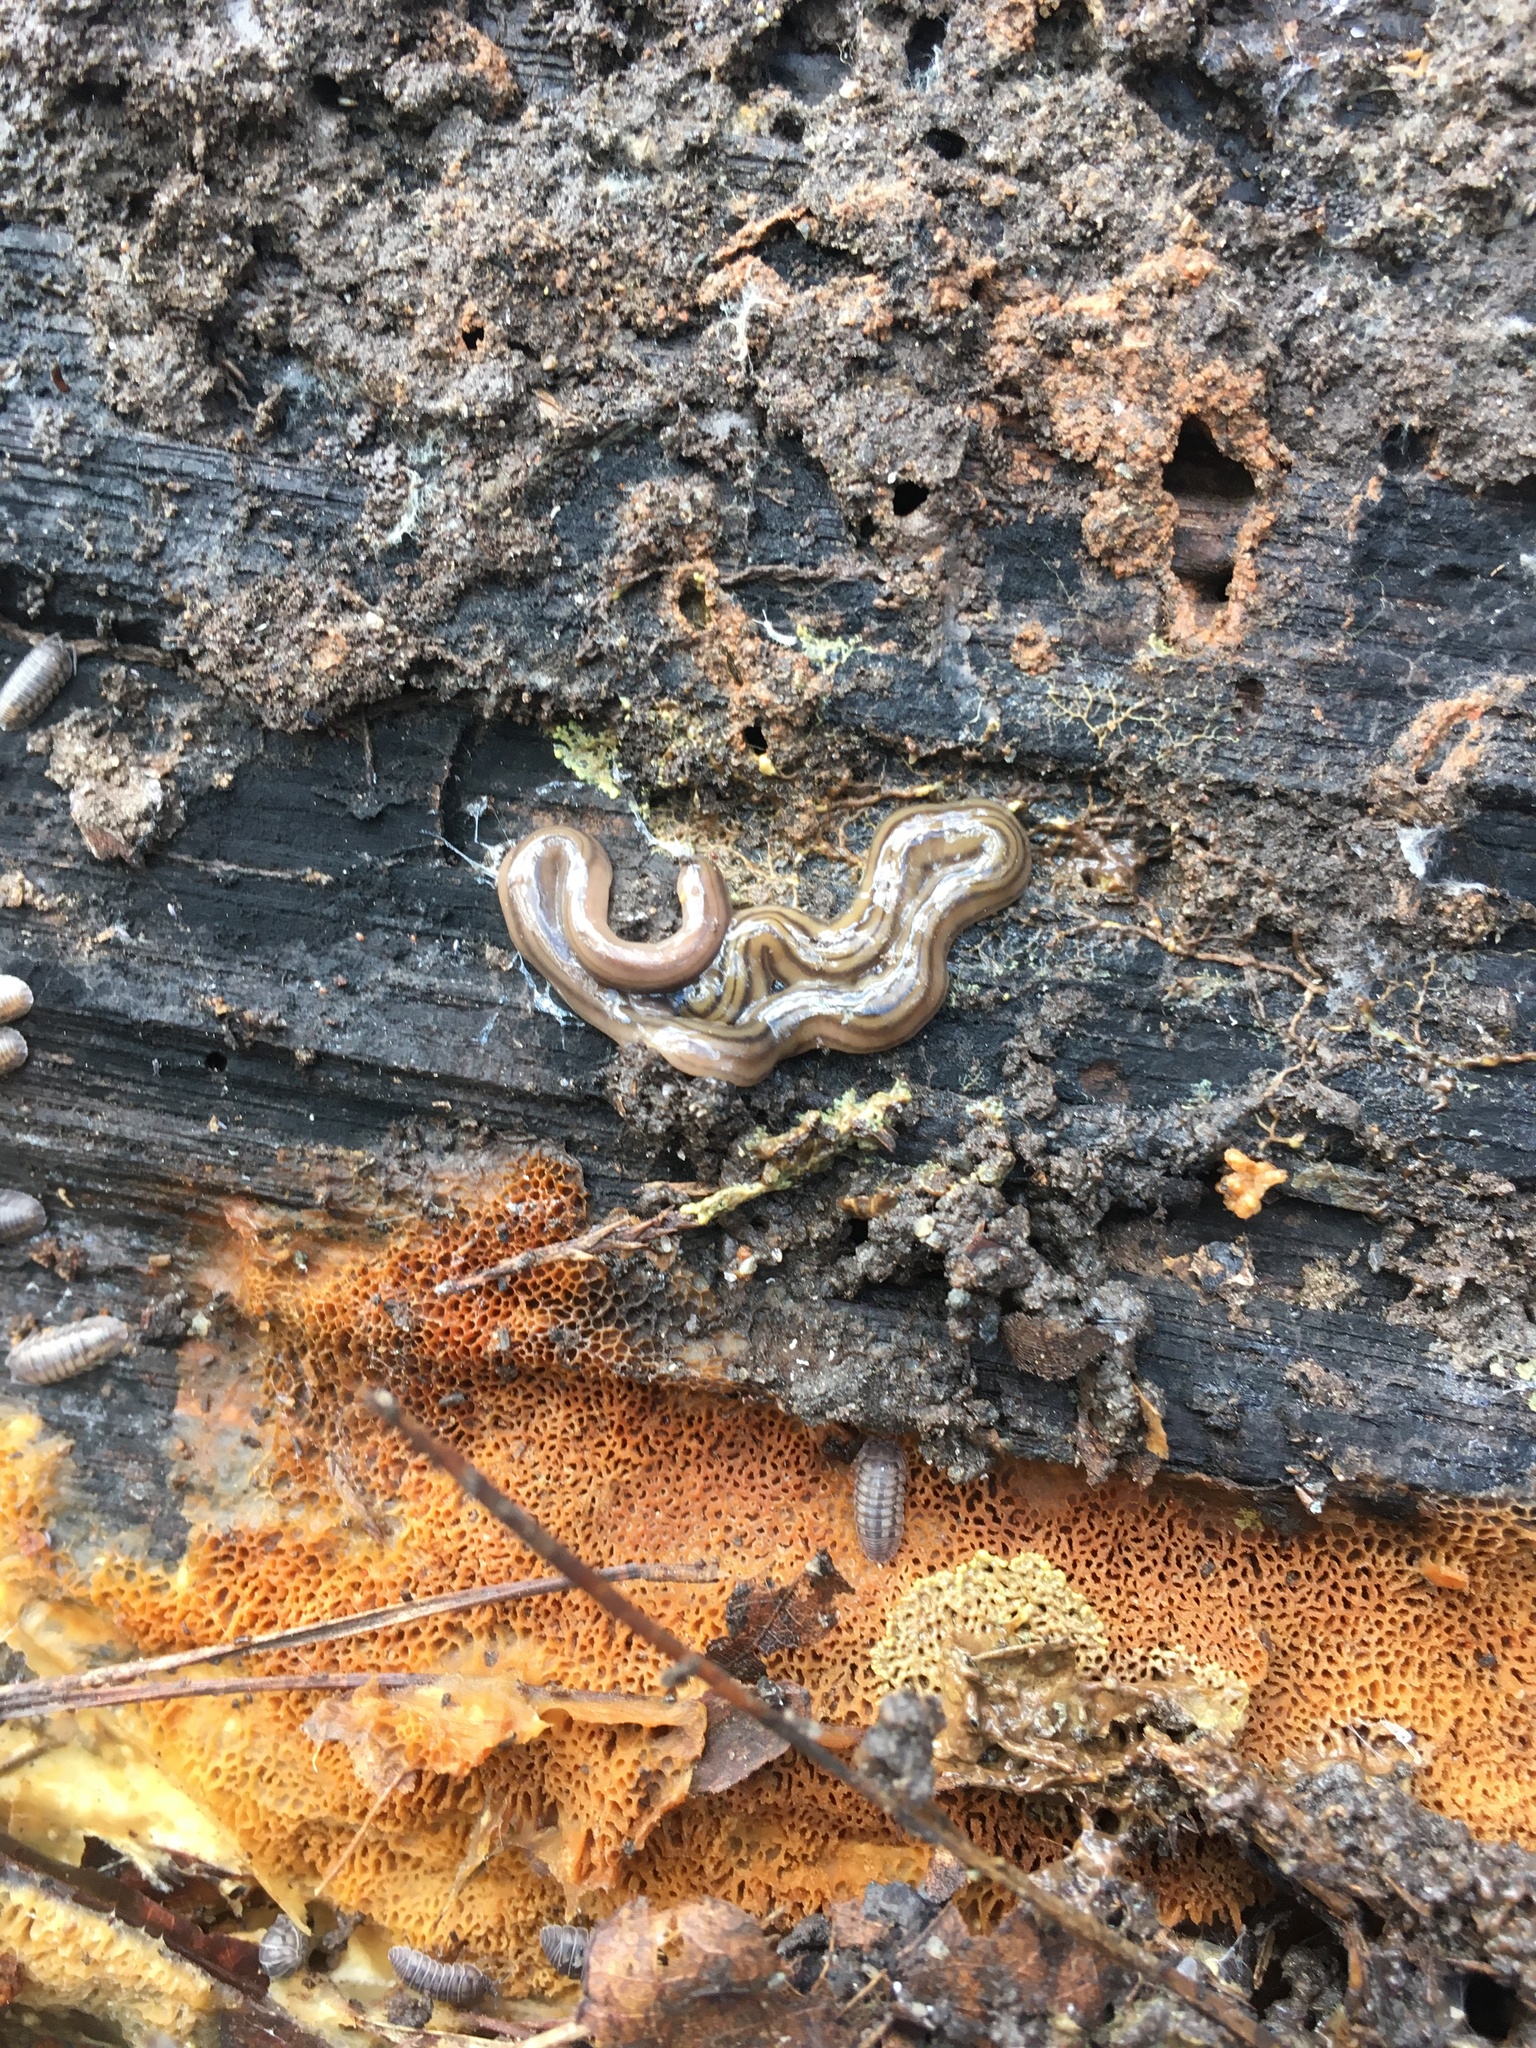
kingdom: Animalia
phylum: Platyhelminthes
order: Tricladida
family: Geoplanidae
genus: Bipalium
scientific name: Bipalium kewense
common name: Hammerhead flatworm
